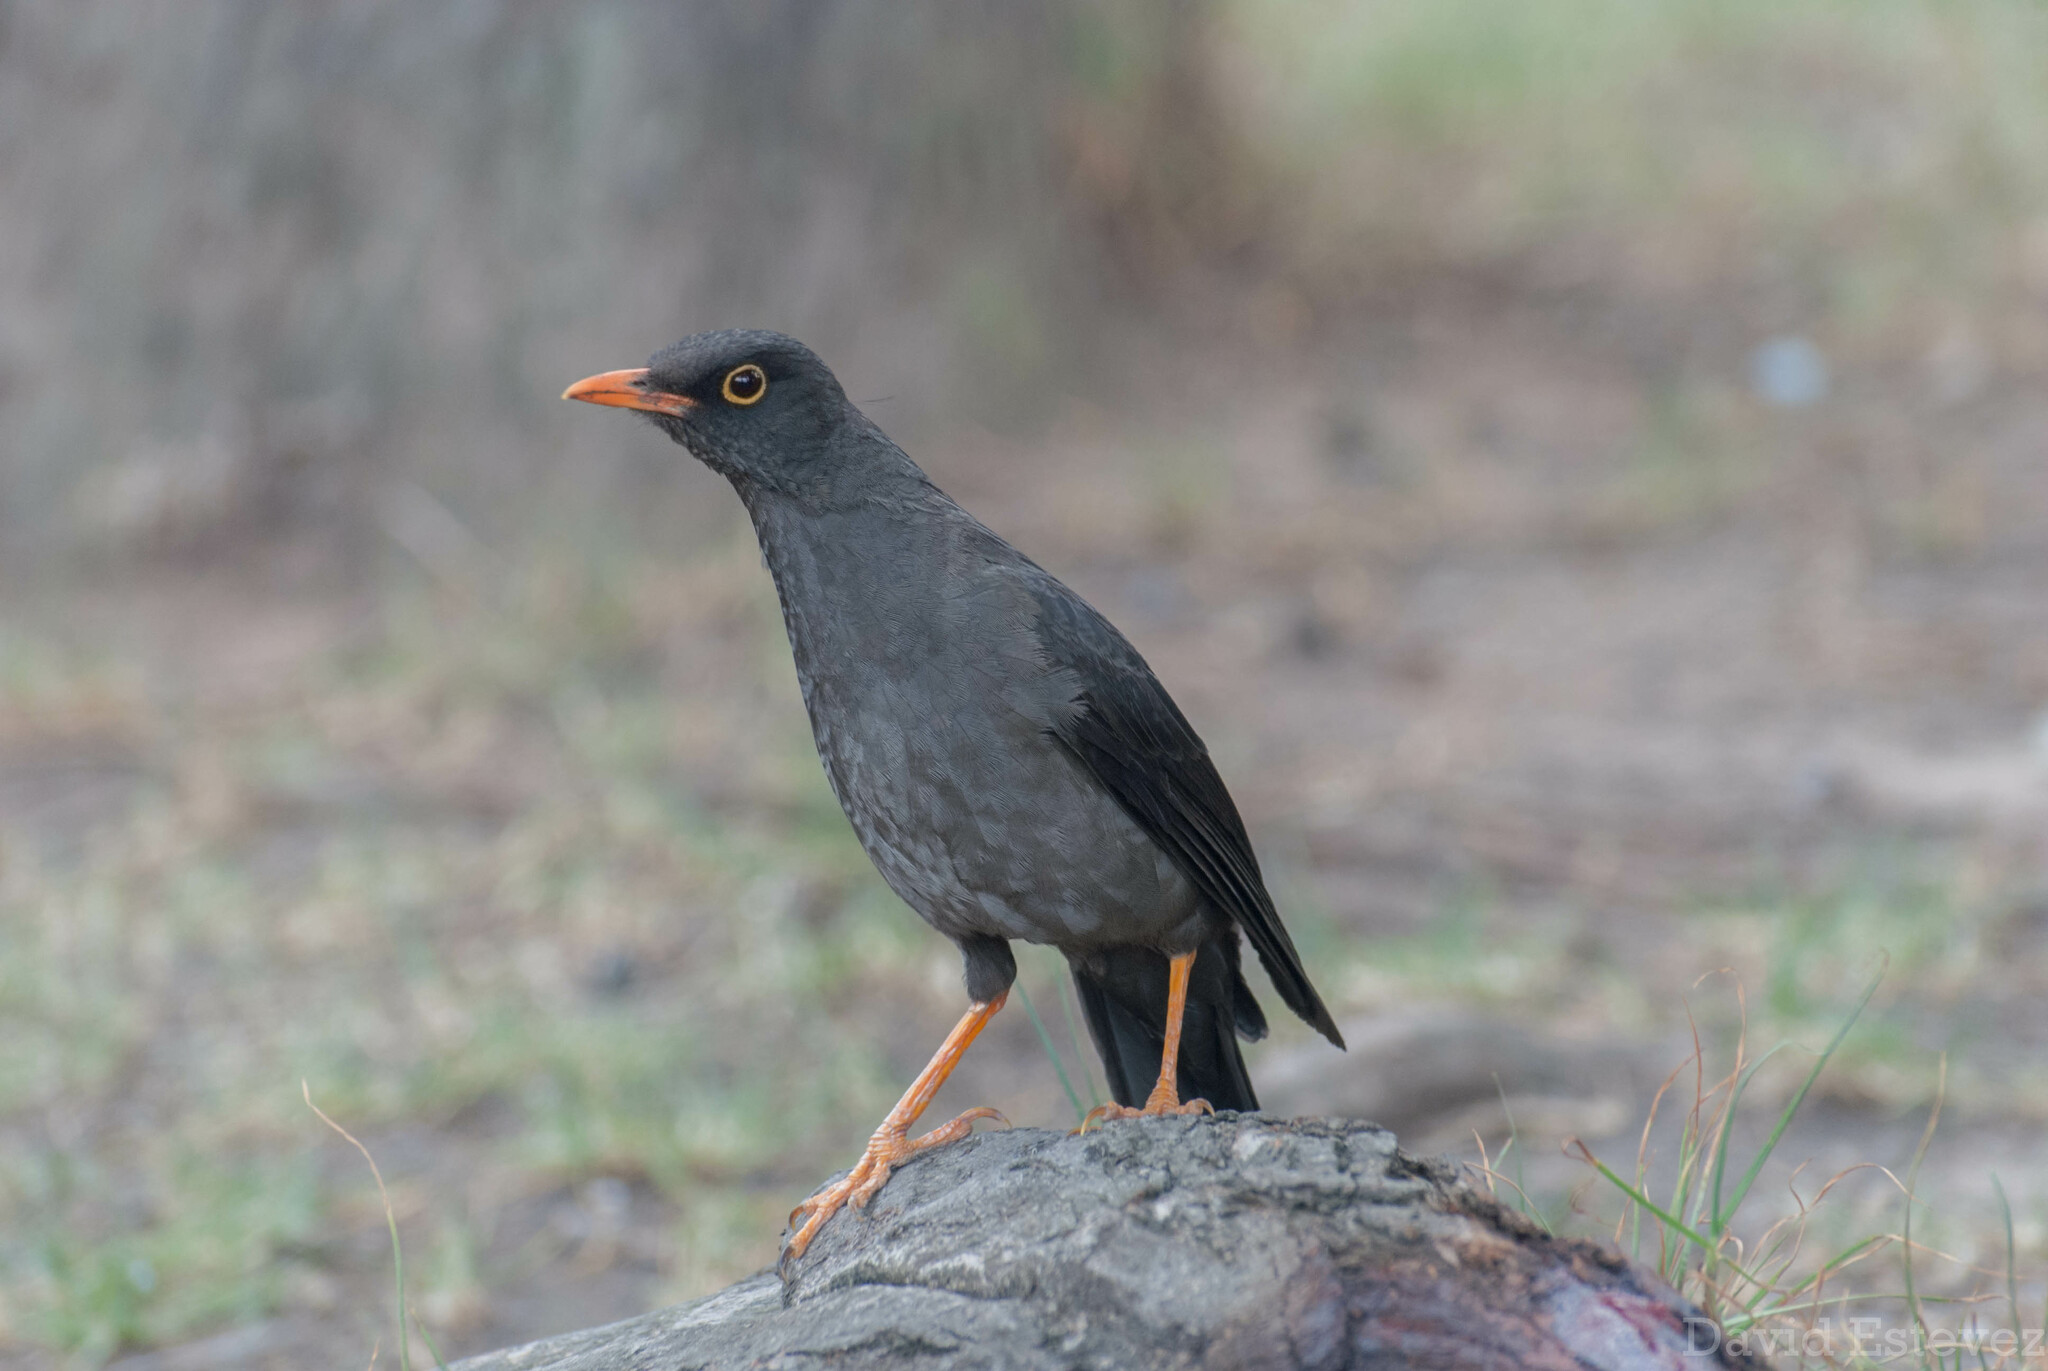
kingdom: Animalia
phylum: Chordata
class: Aves
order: Passeriformes
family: Turdidae
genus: Turdus
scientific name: Turdus fuscater
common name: Great thrush
